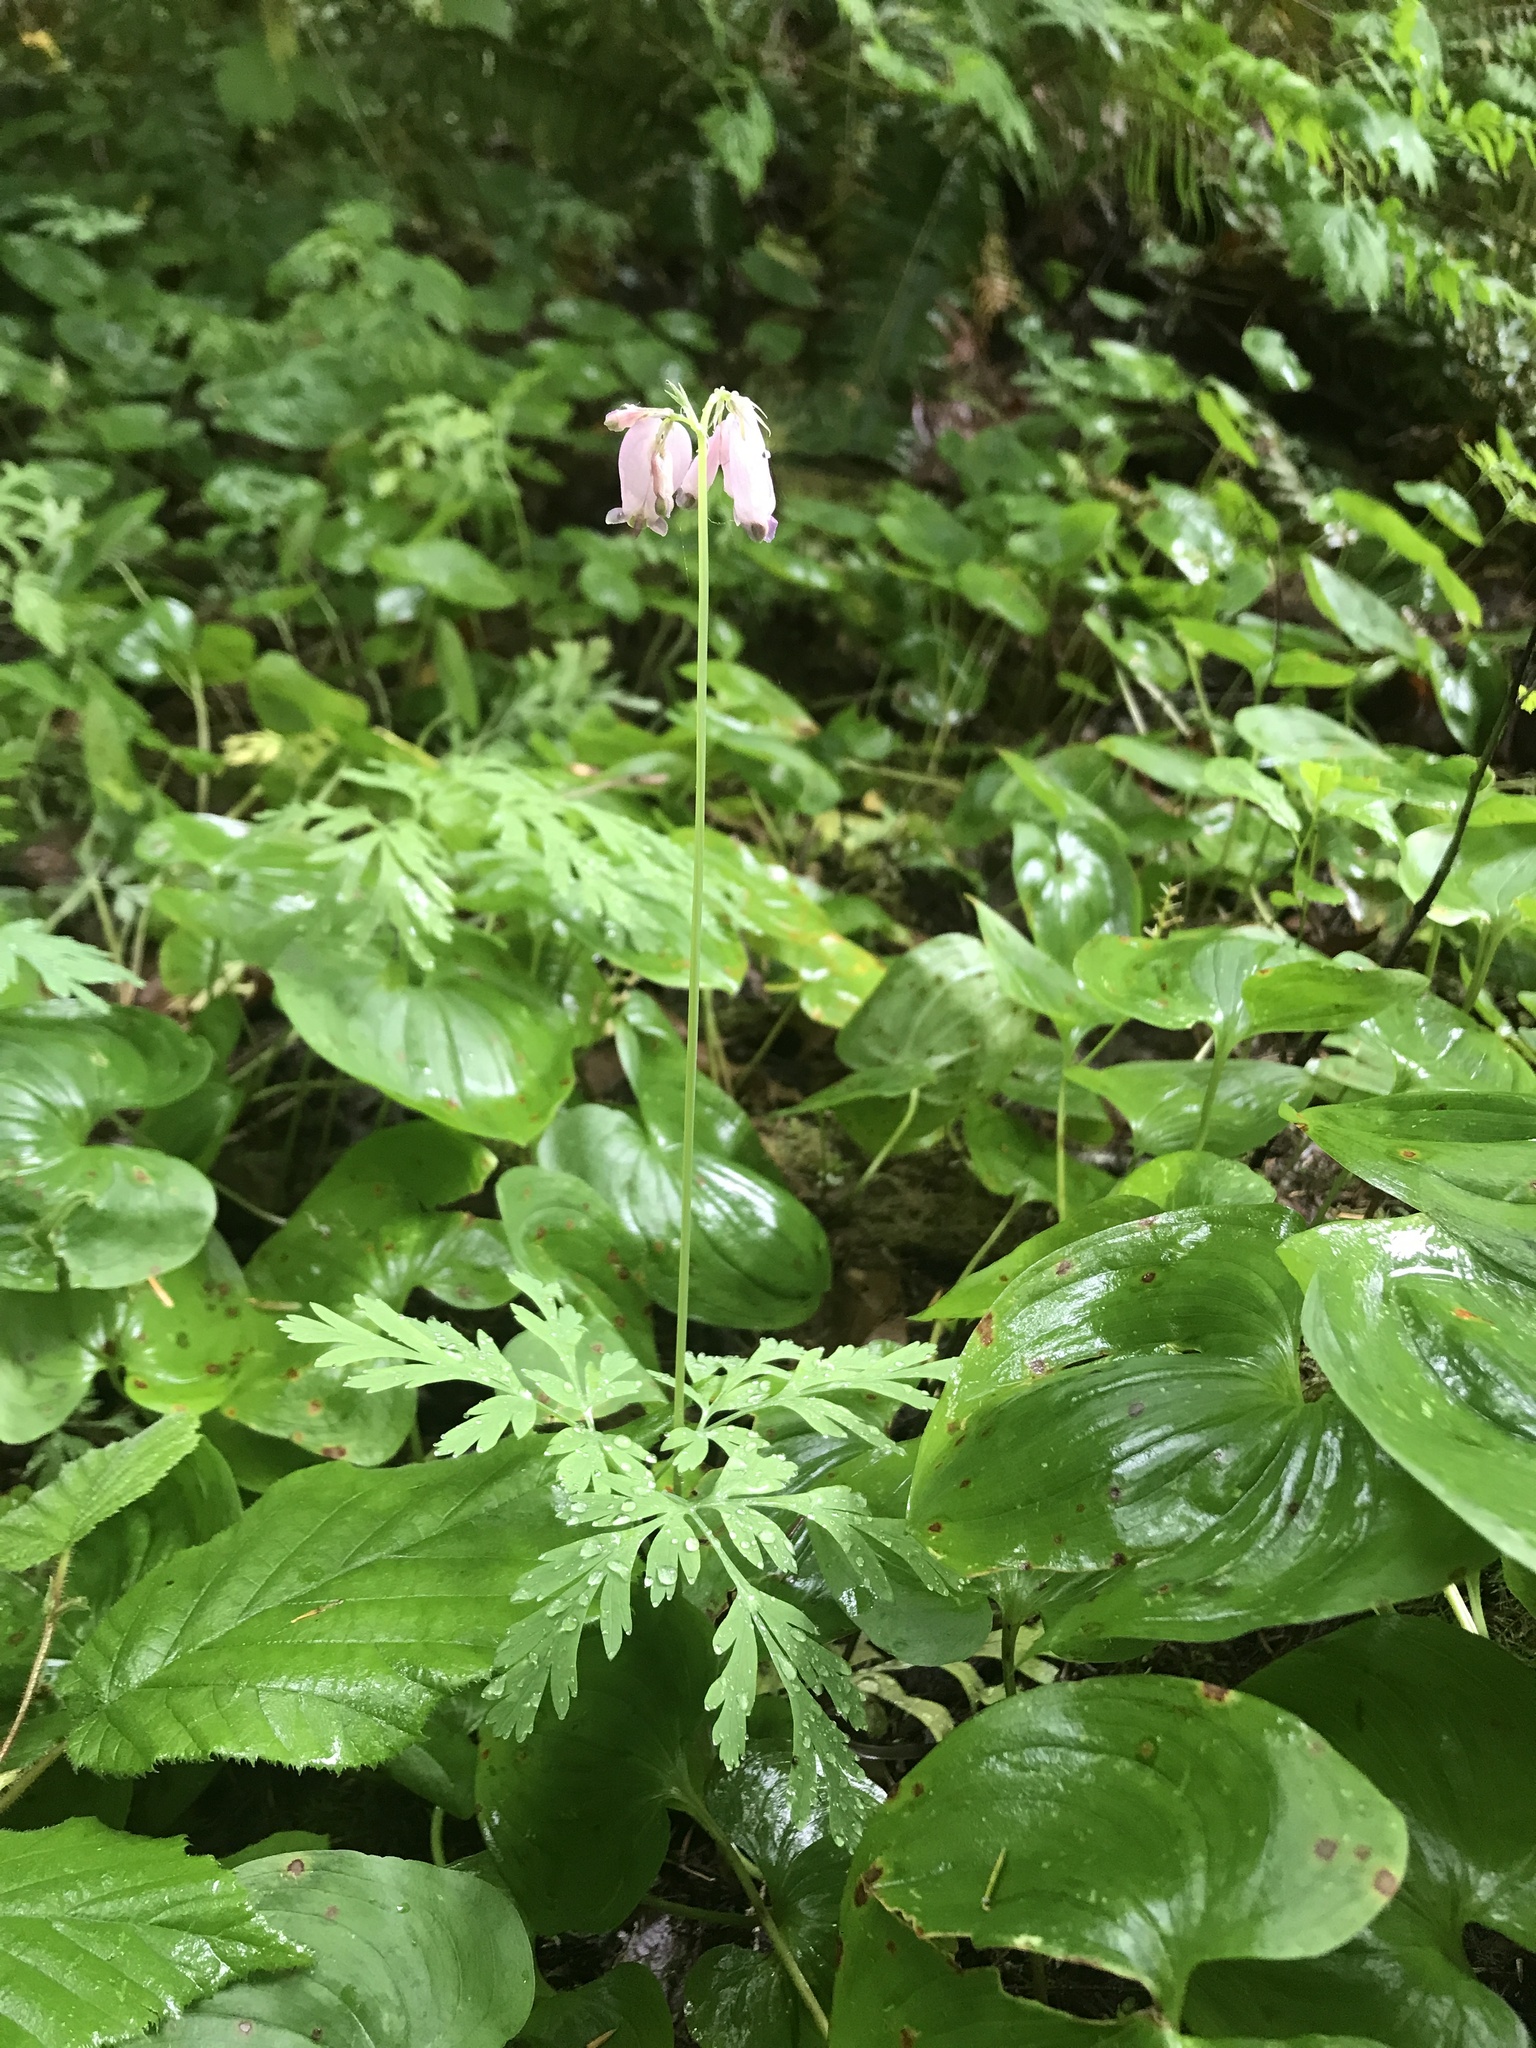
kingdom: Plantae
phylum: Tracheophyta
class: Magnoliopsida
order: Ranunculales
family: Papaveraceae
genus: Dicentra
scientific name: Dicentra formosa
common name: Bleeding-heart
